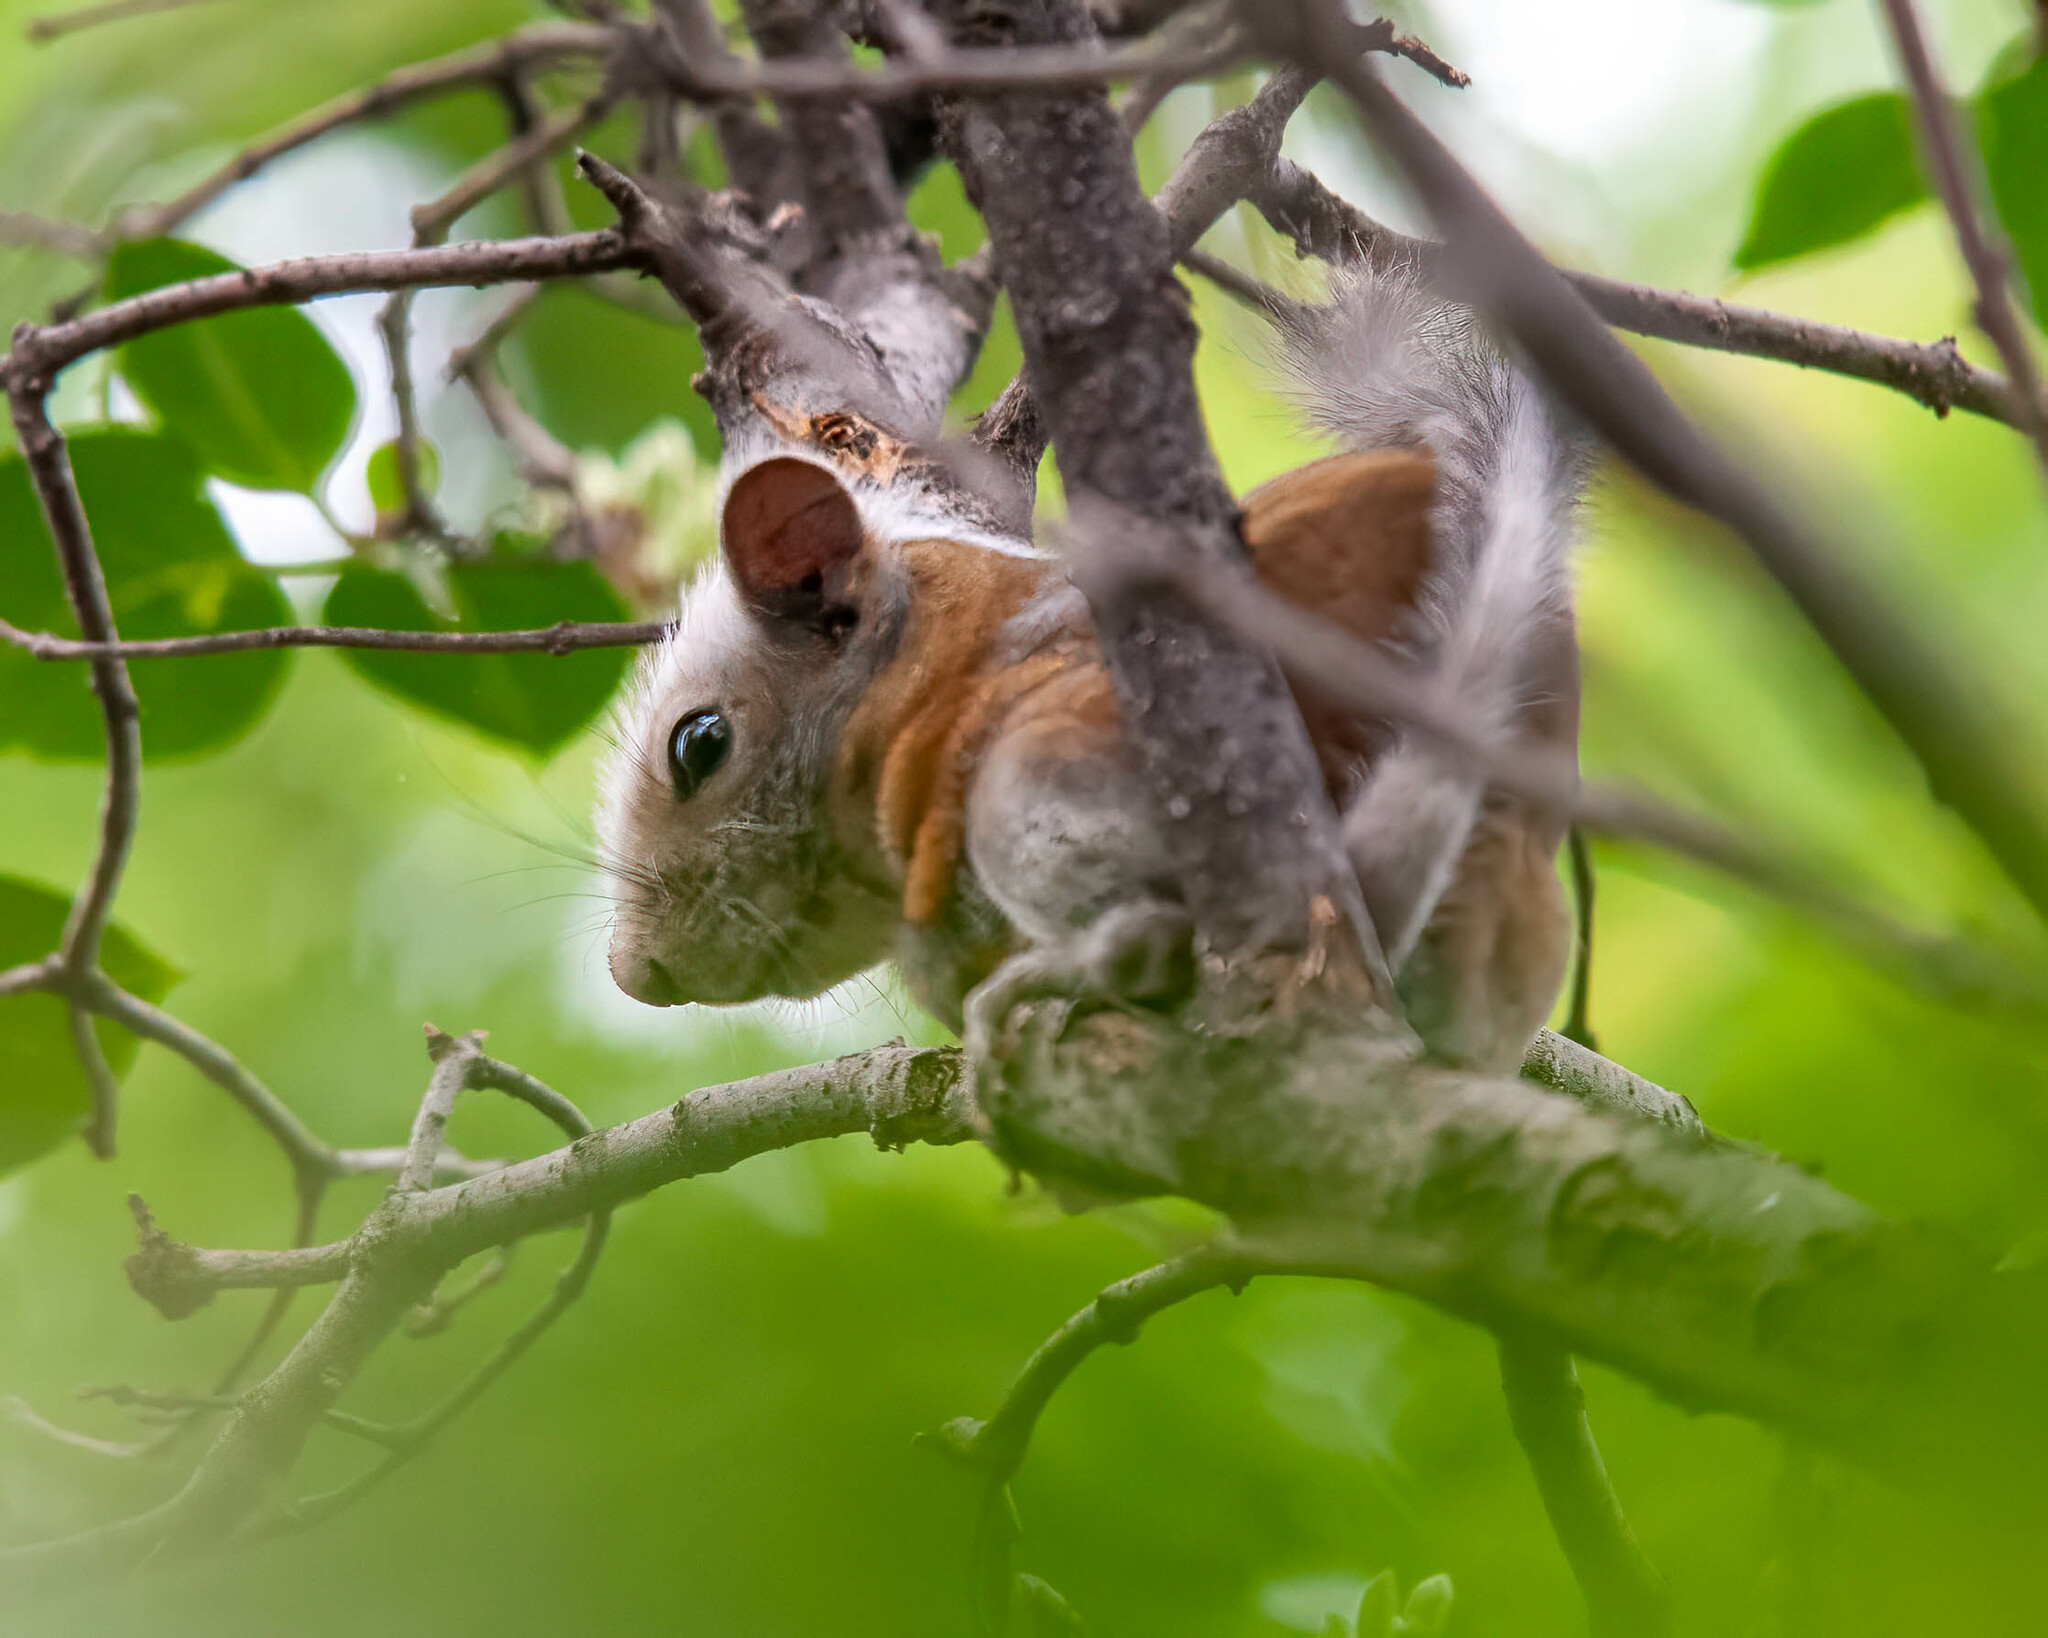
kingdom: Animalia
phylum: Chordata
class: Mammalia
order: Rodentia
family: Sciuridae
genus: Tamiasciurus
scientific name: Tamiasciurus hudsonicus
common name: Red squirrel
